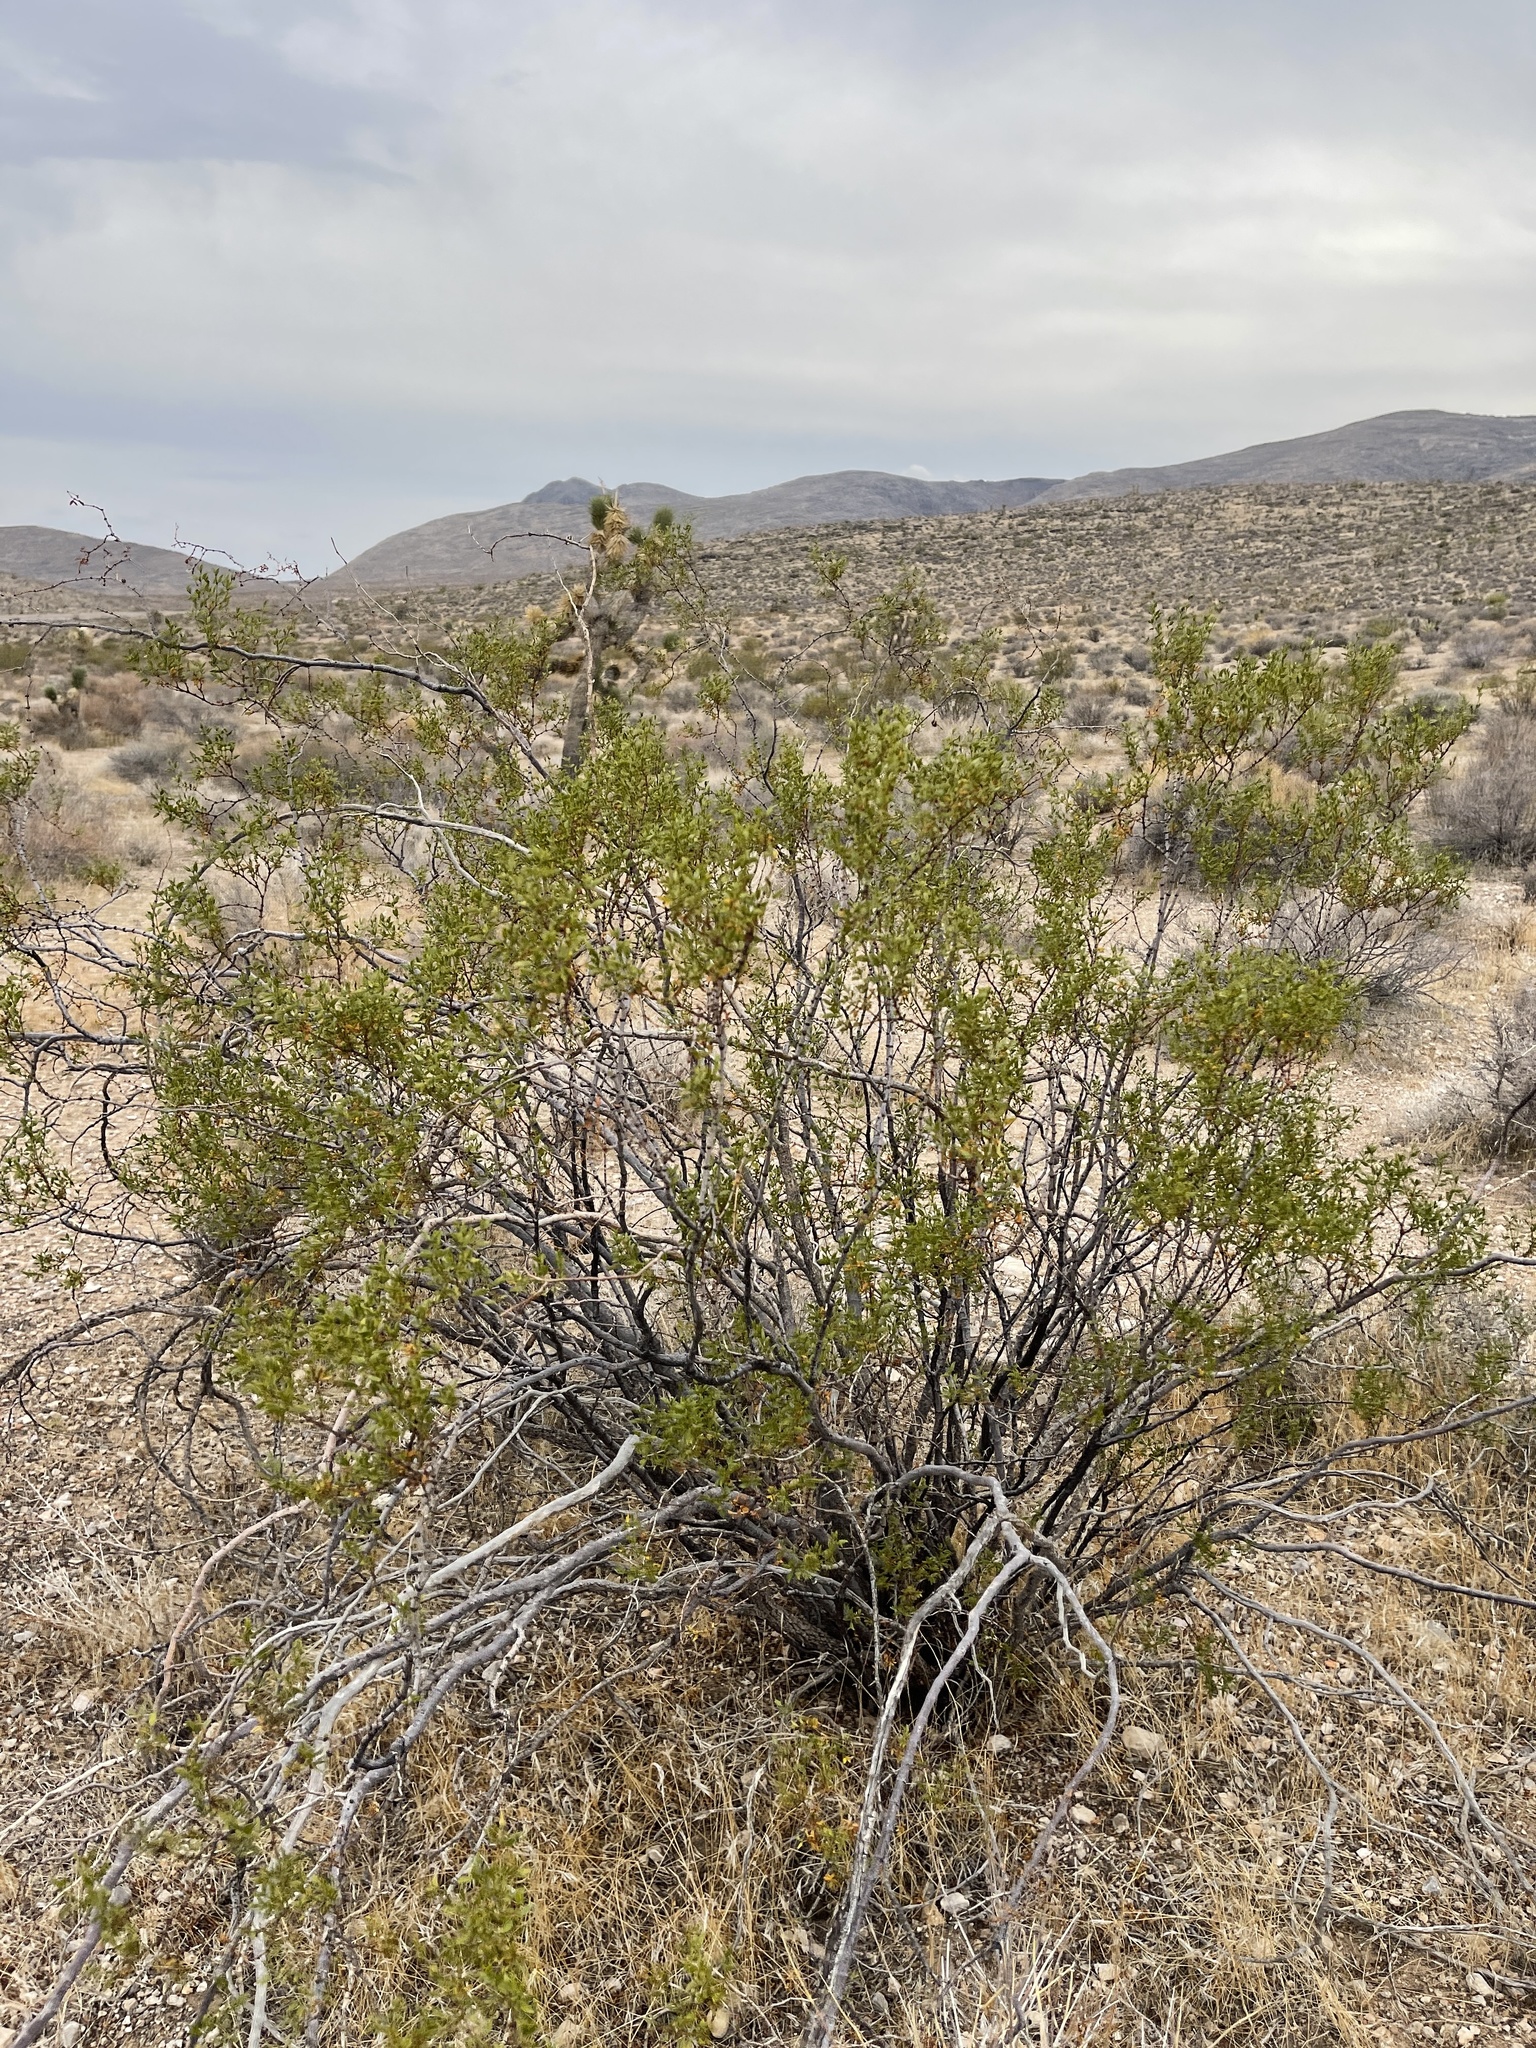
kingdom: Plantae
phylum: Tracheophyta
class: Magnoliopsida
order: Zygophyllales
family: Zygophyllaceae
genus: Larrea
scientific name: Larrea tridentata
